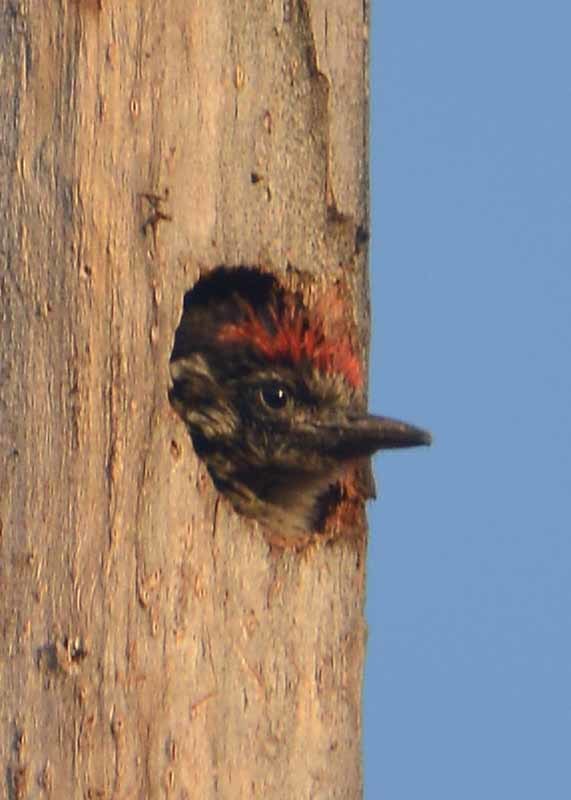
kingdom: Animalia
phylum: Chordata
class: Aves
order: Piciformes
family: Picidae
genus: Dryobates
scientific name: Dryobates scalaris
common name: Ladder-backed woodpecker
